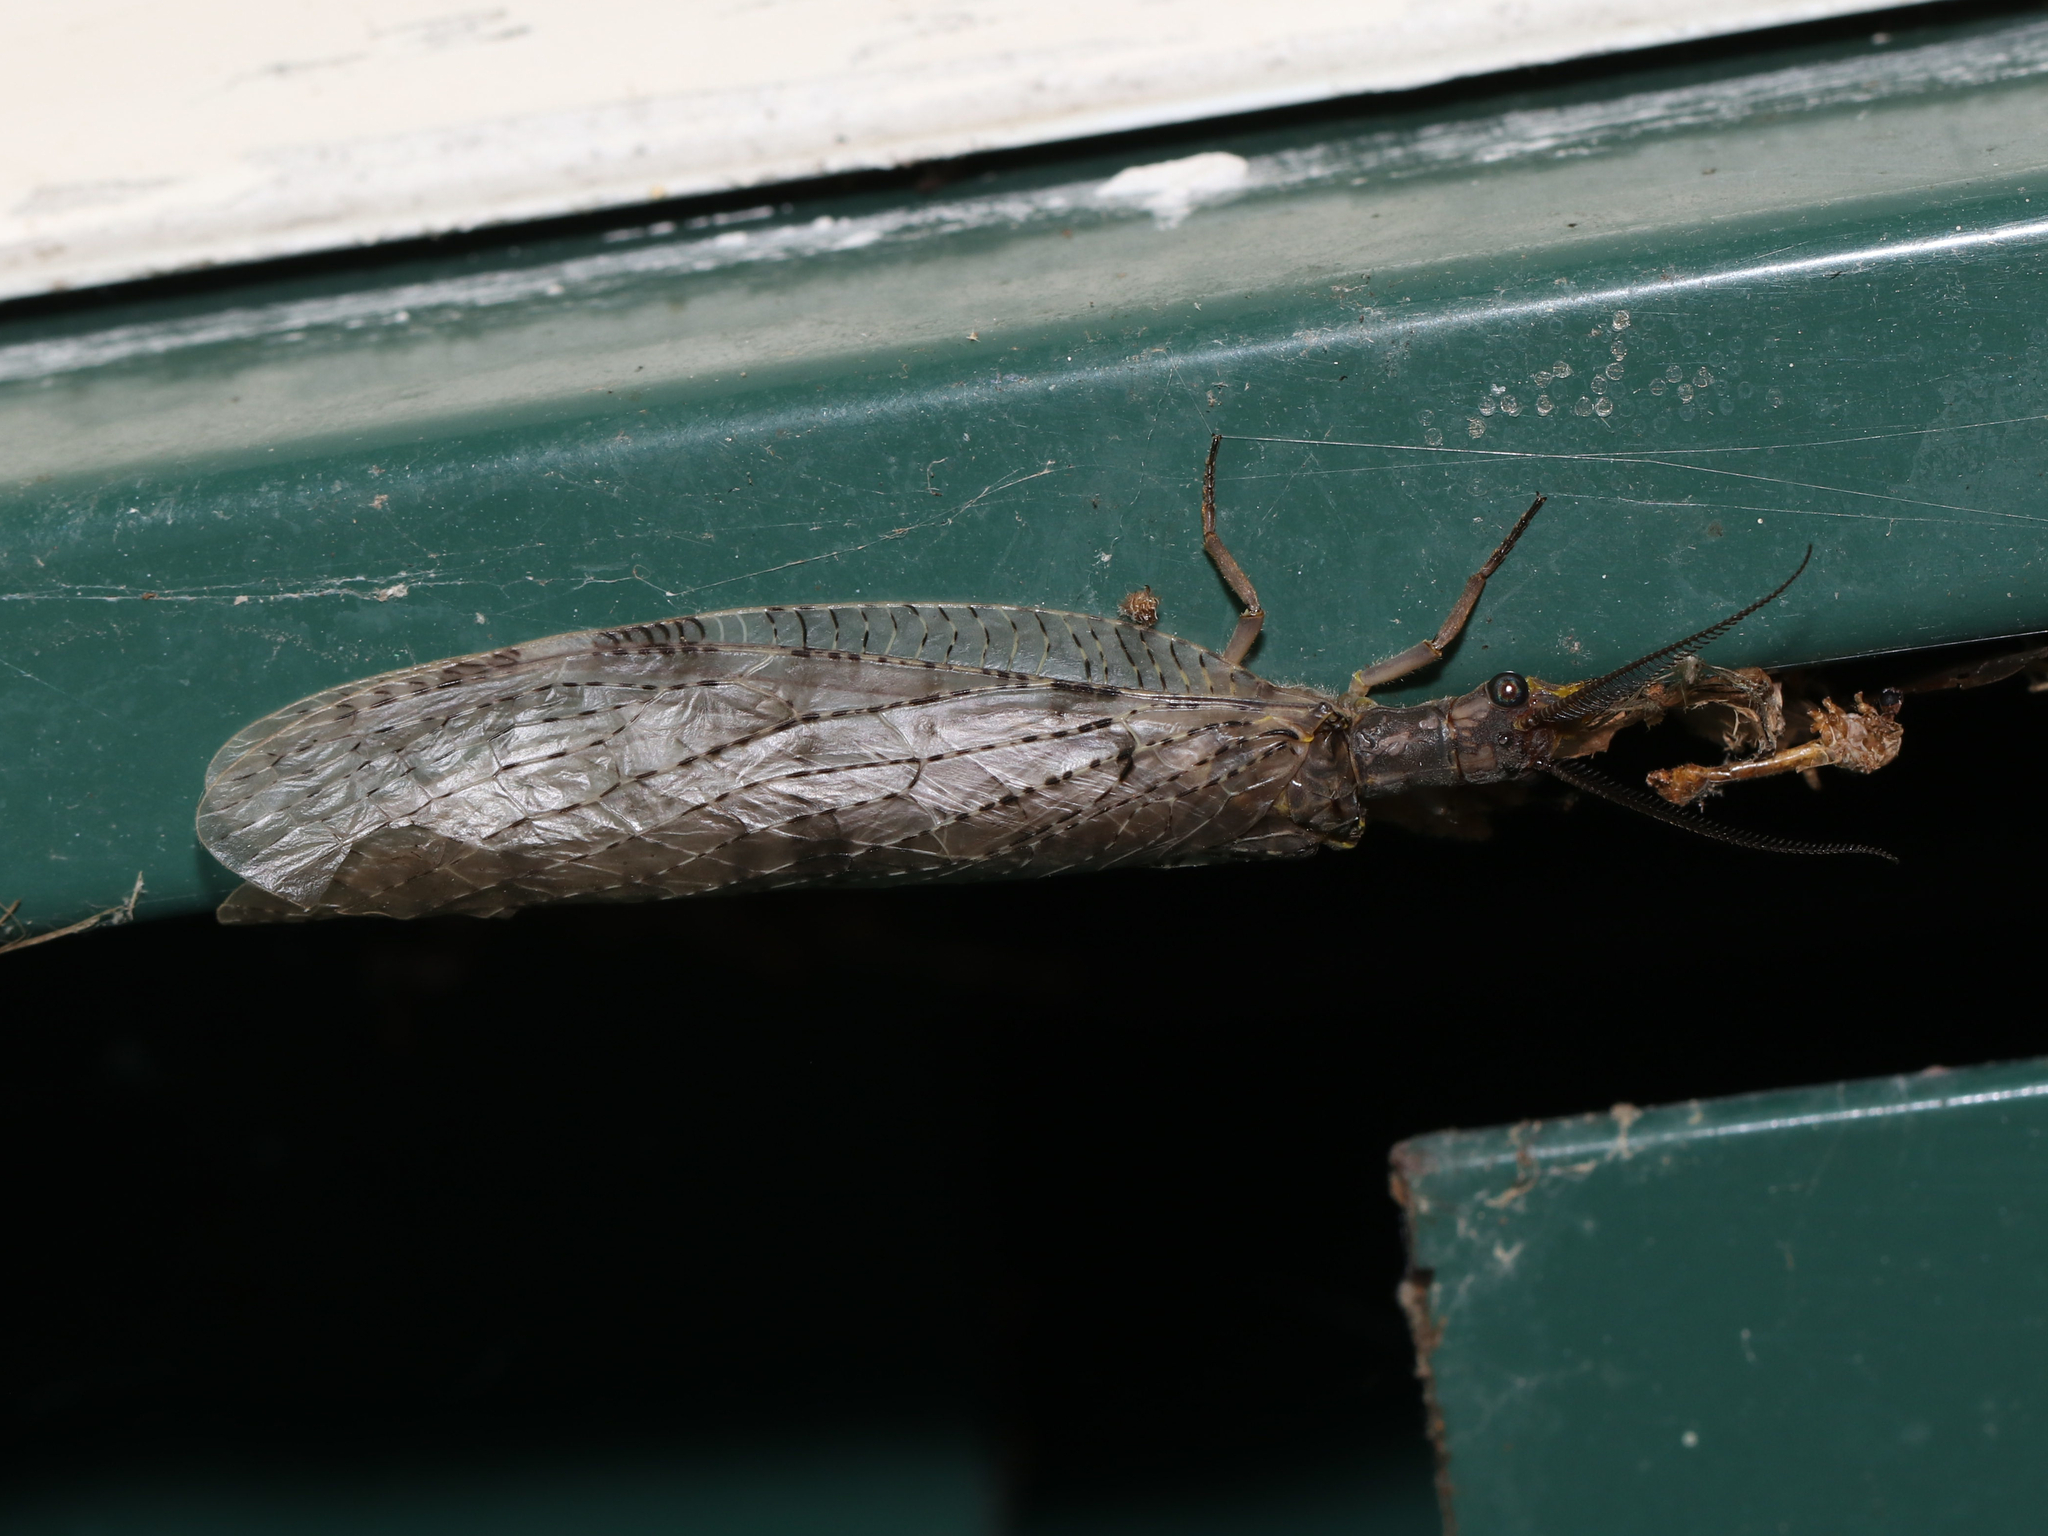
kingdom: Animalia
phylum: Arthropoda
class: Insecta
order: Megaloptera
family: Corydalidae
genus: Chauliodes
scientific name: Chauliodes pectinicornis
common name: Summer fishfly
